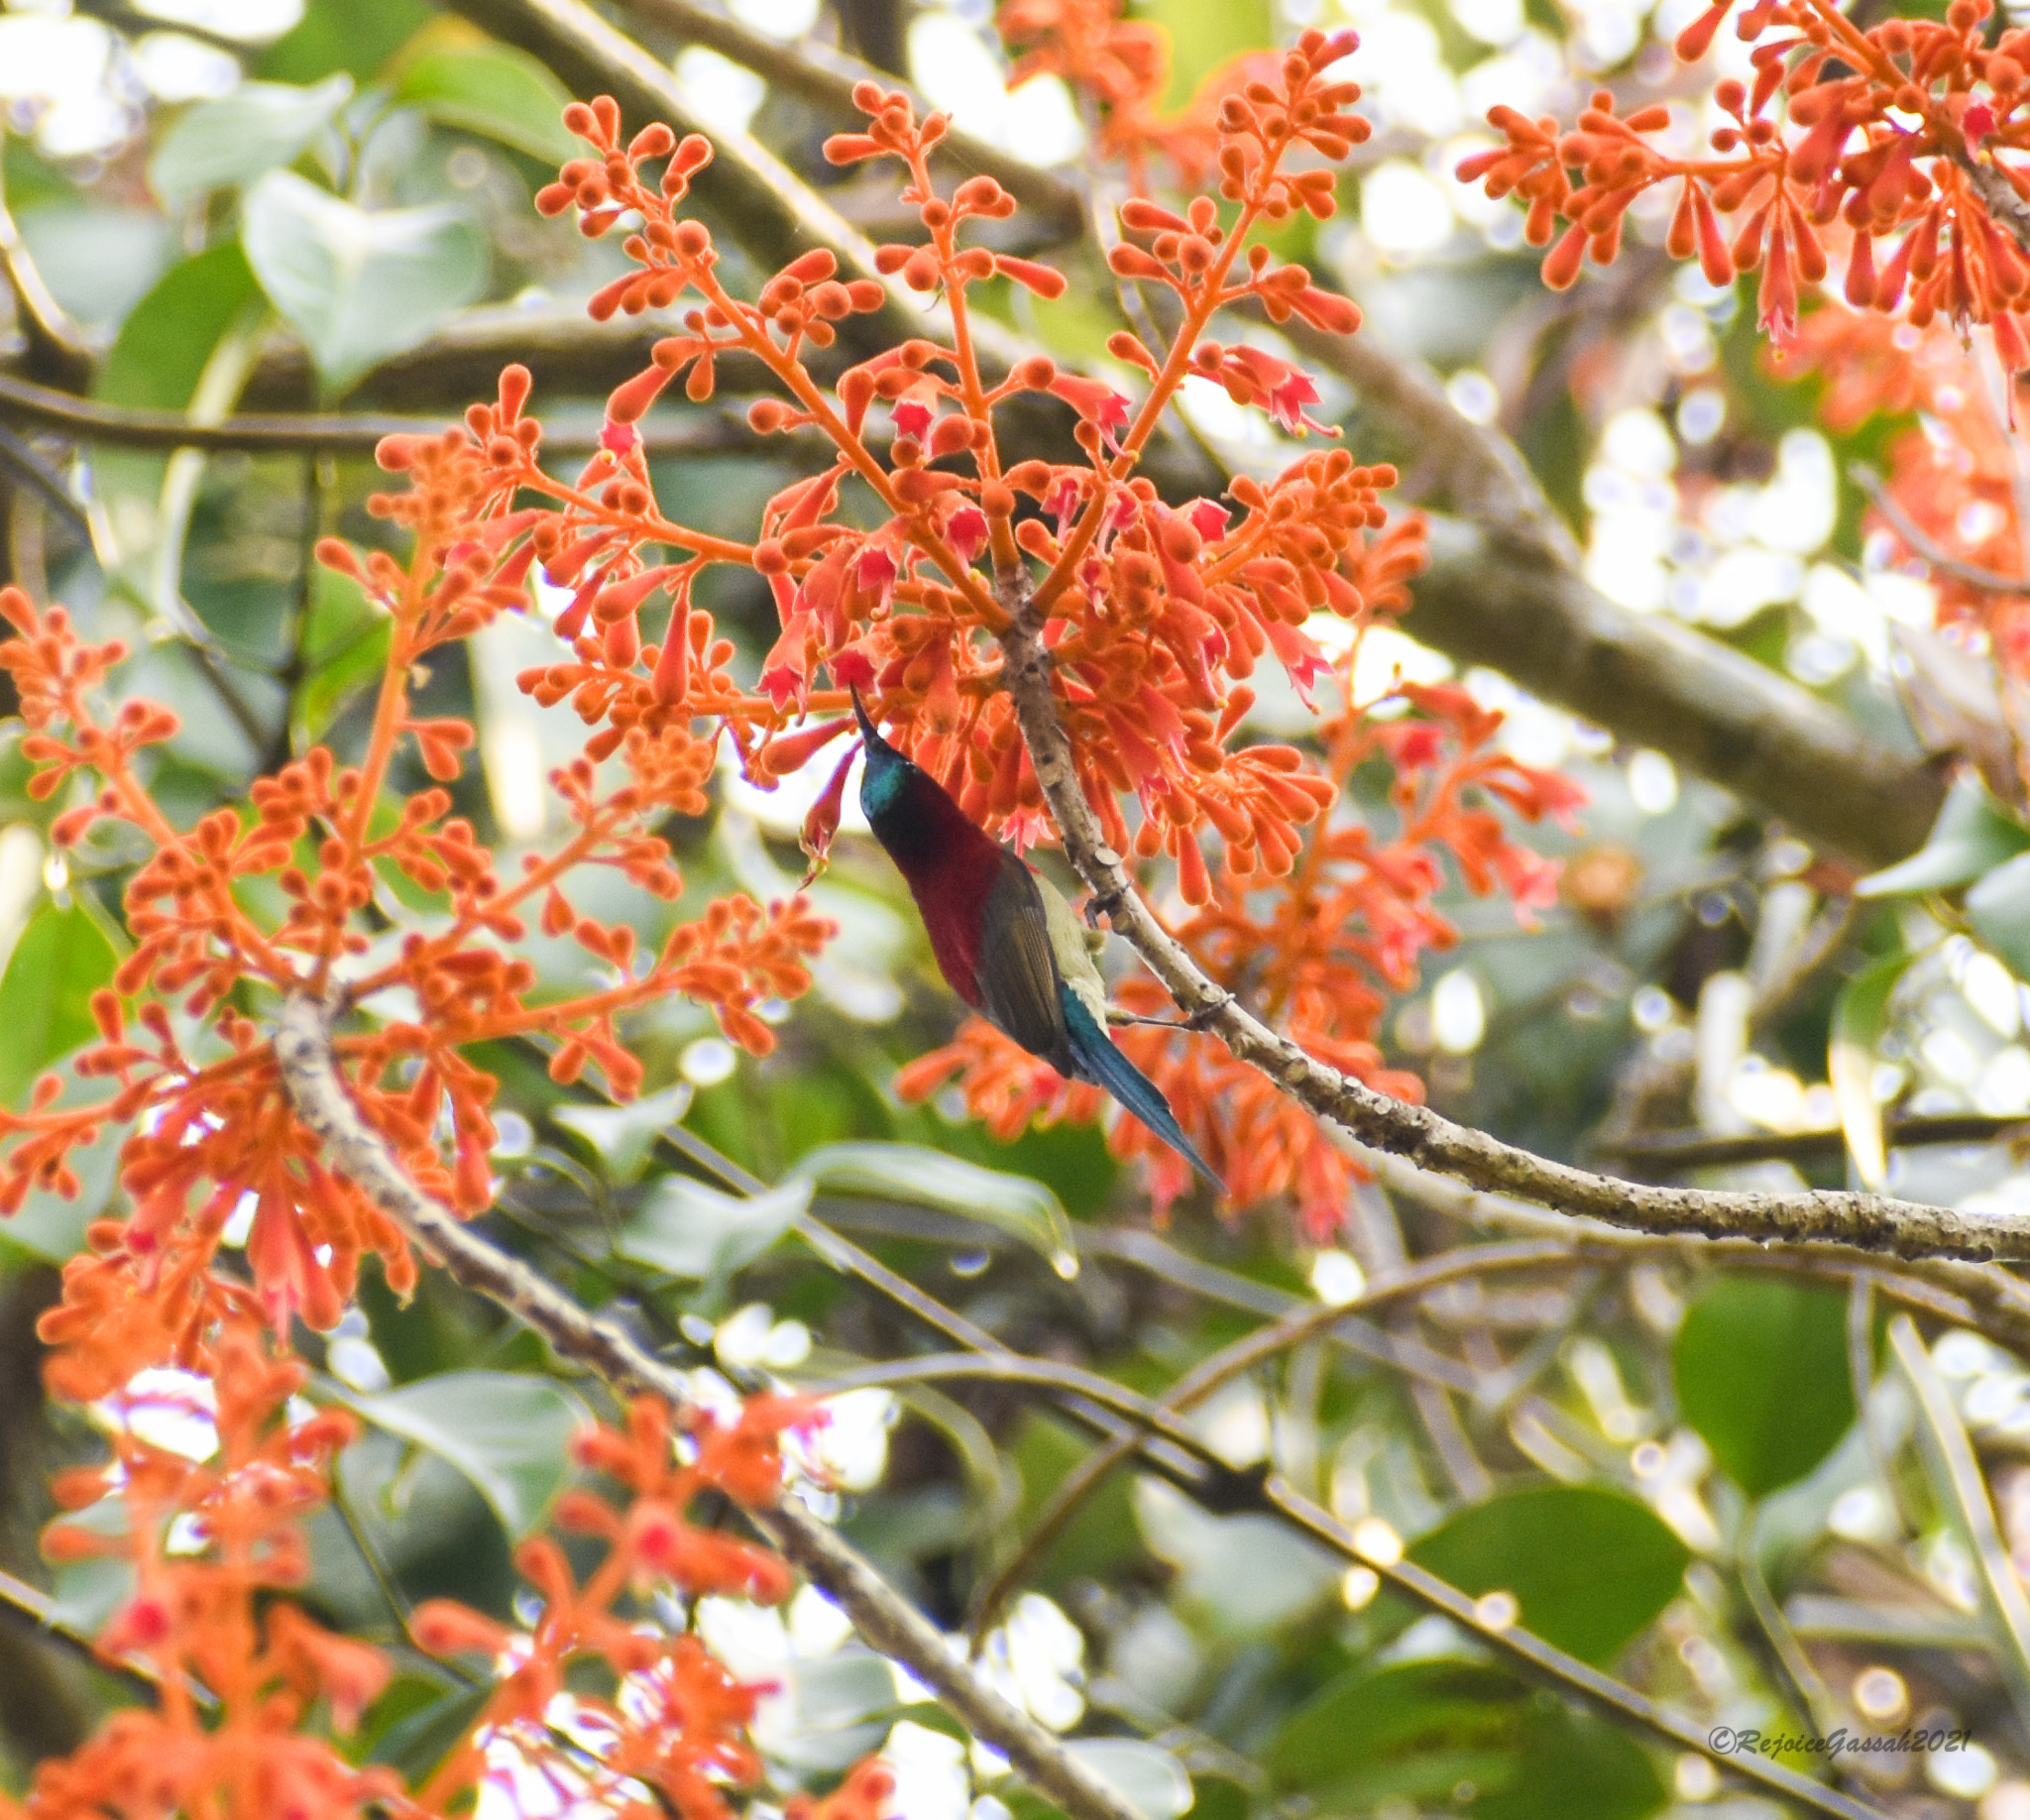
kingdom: Animalia
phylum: Chordata
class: Aves
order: Passeriformes
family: Nectariniidae
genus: Aethopyga
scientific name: Aethopyga siparaja
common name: Crimson sunbird
